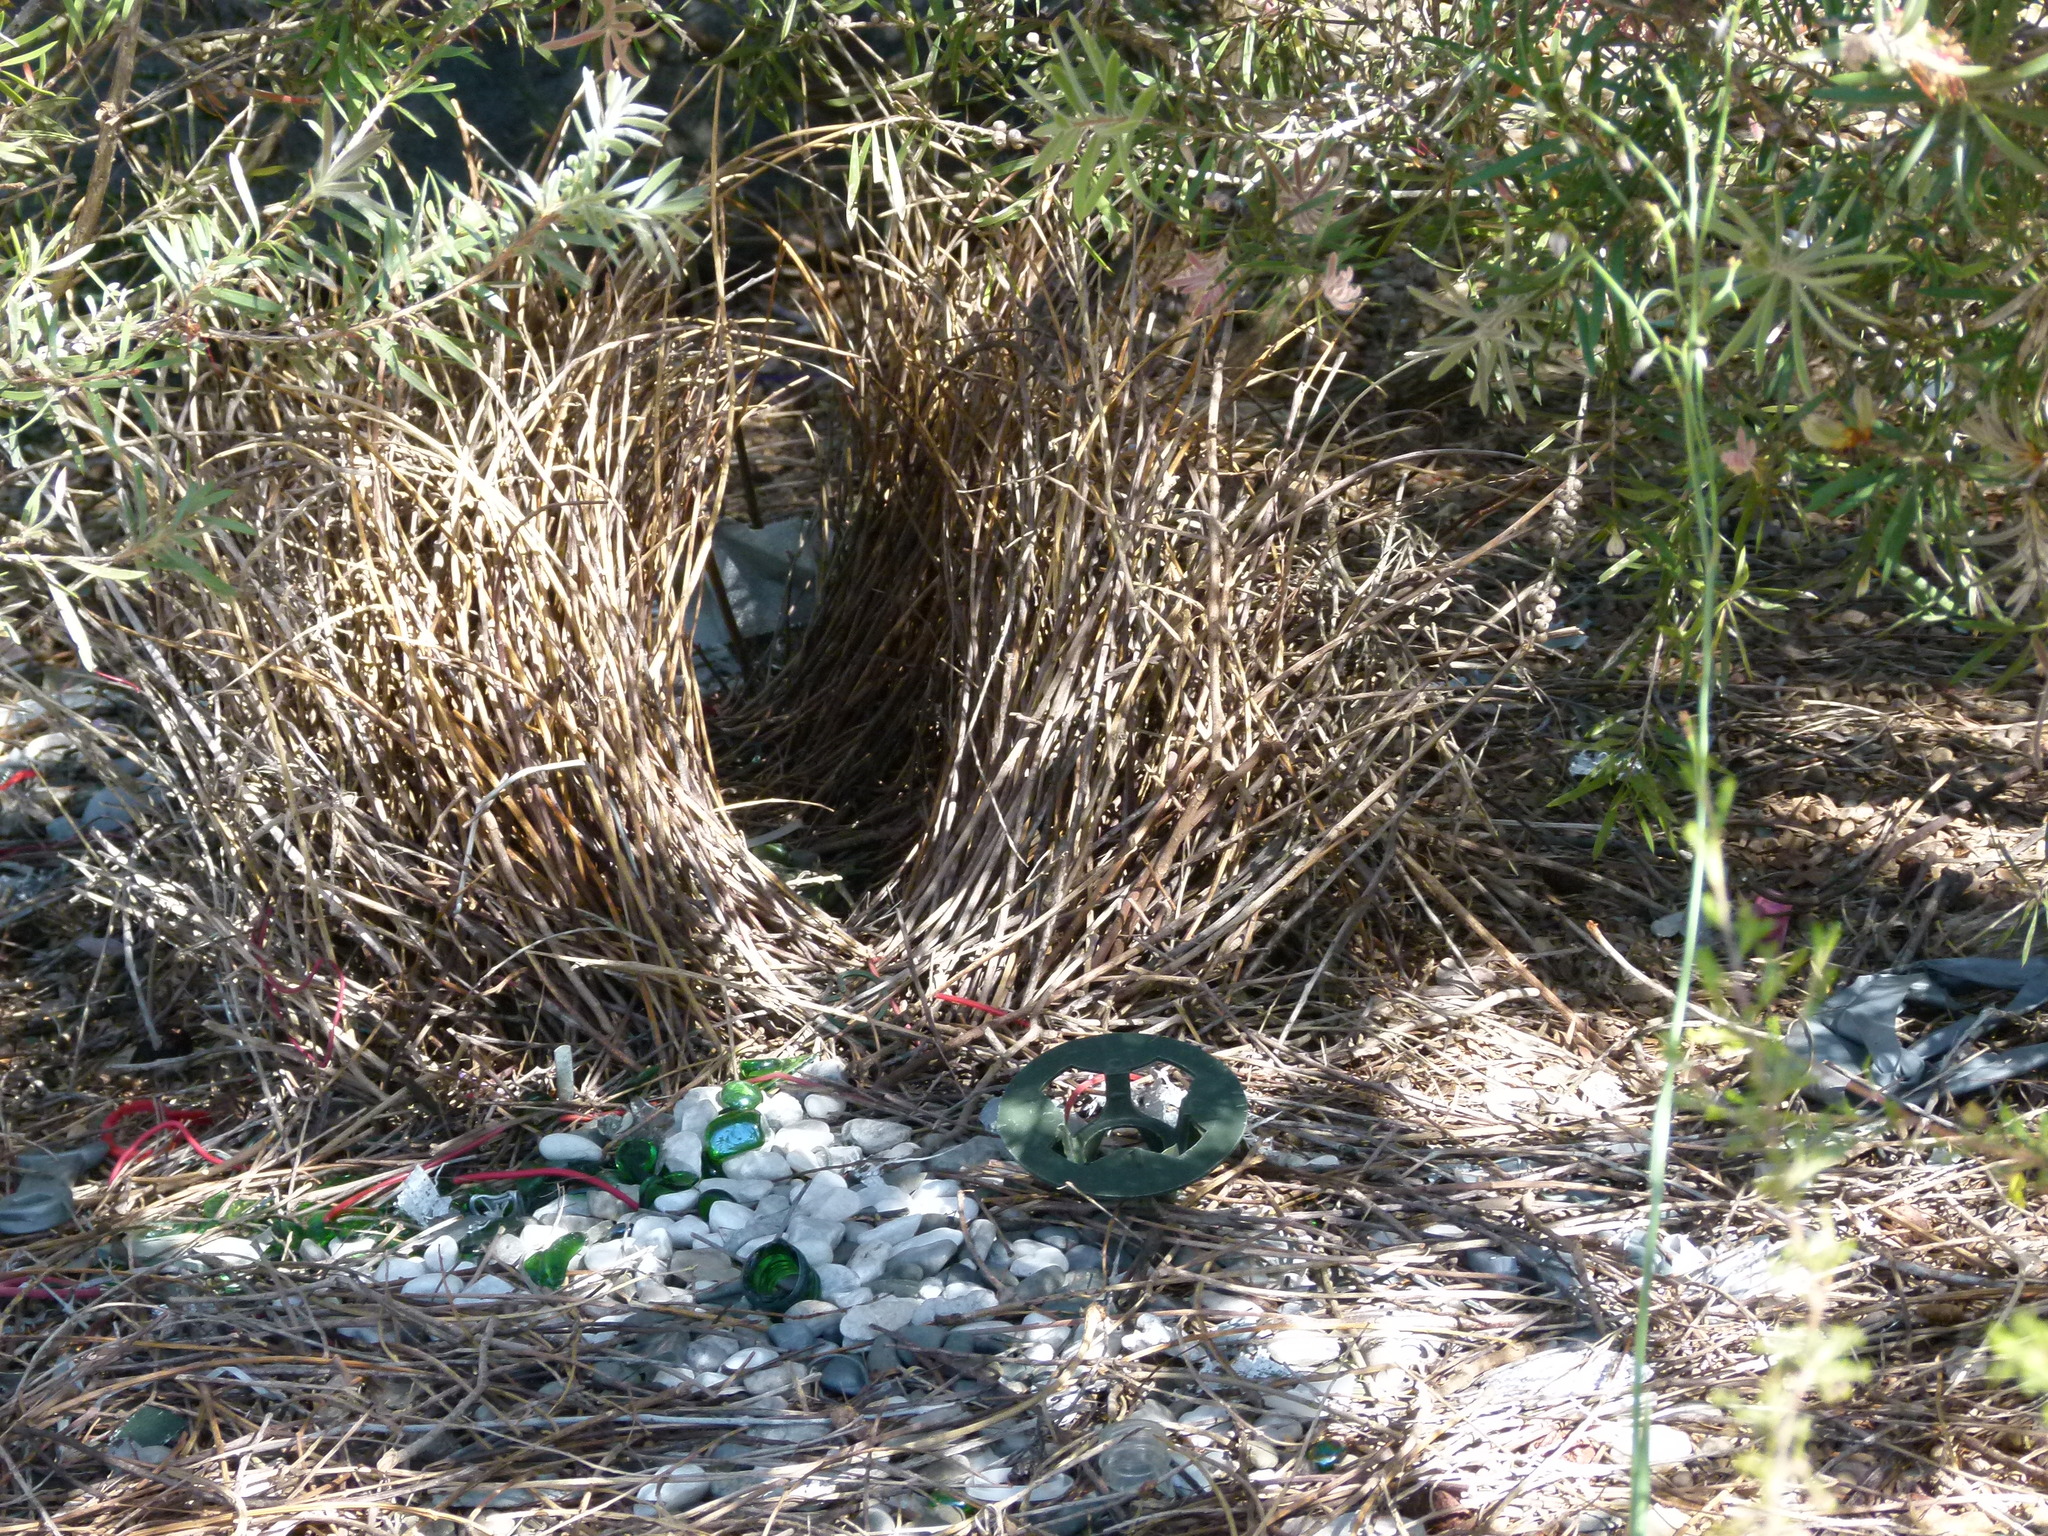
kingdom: Animalia
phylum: Chordata
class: Aves
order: Passeriformes
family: Ptilonorhynchidae
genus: Chlamydera
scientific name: Chlamydera nuchalis
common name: Great bowerbird
